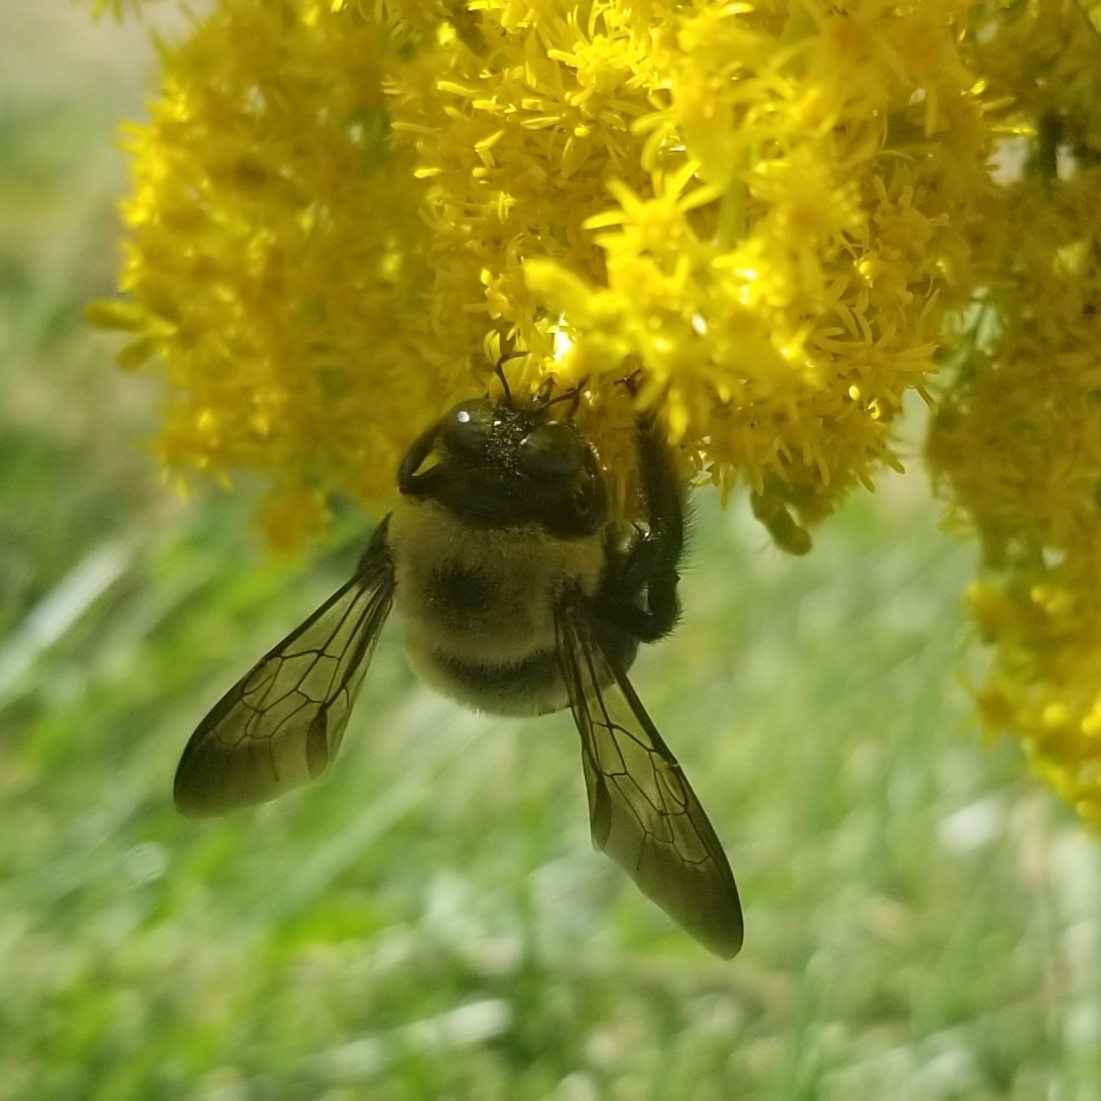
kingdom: Animalia
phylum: Arthropoda
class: Insecta
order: Hymenoptera
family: Apidae
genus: Xylocopa
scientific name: Xylocopa virginica
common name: Carpenter bee
